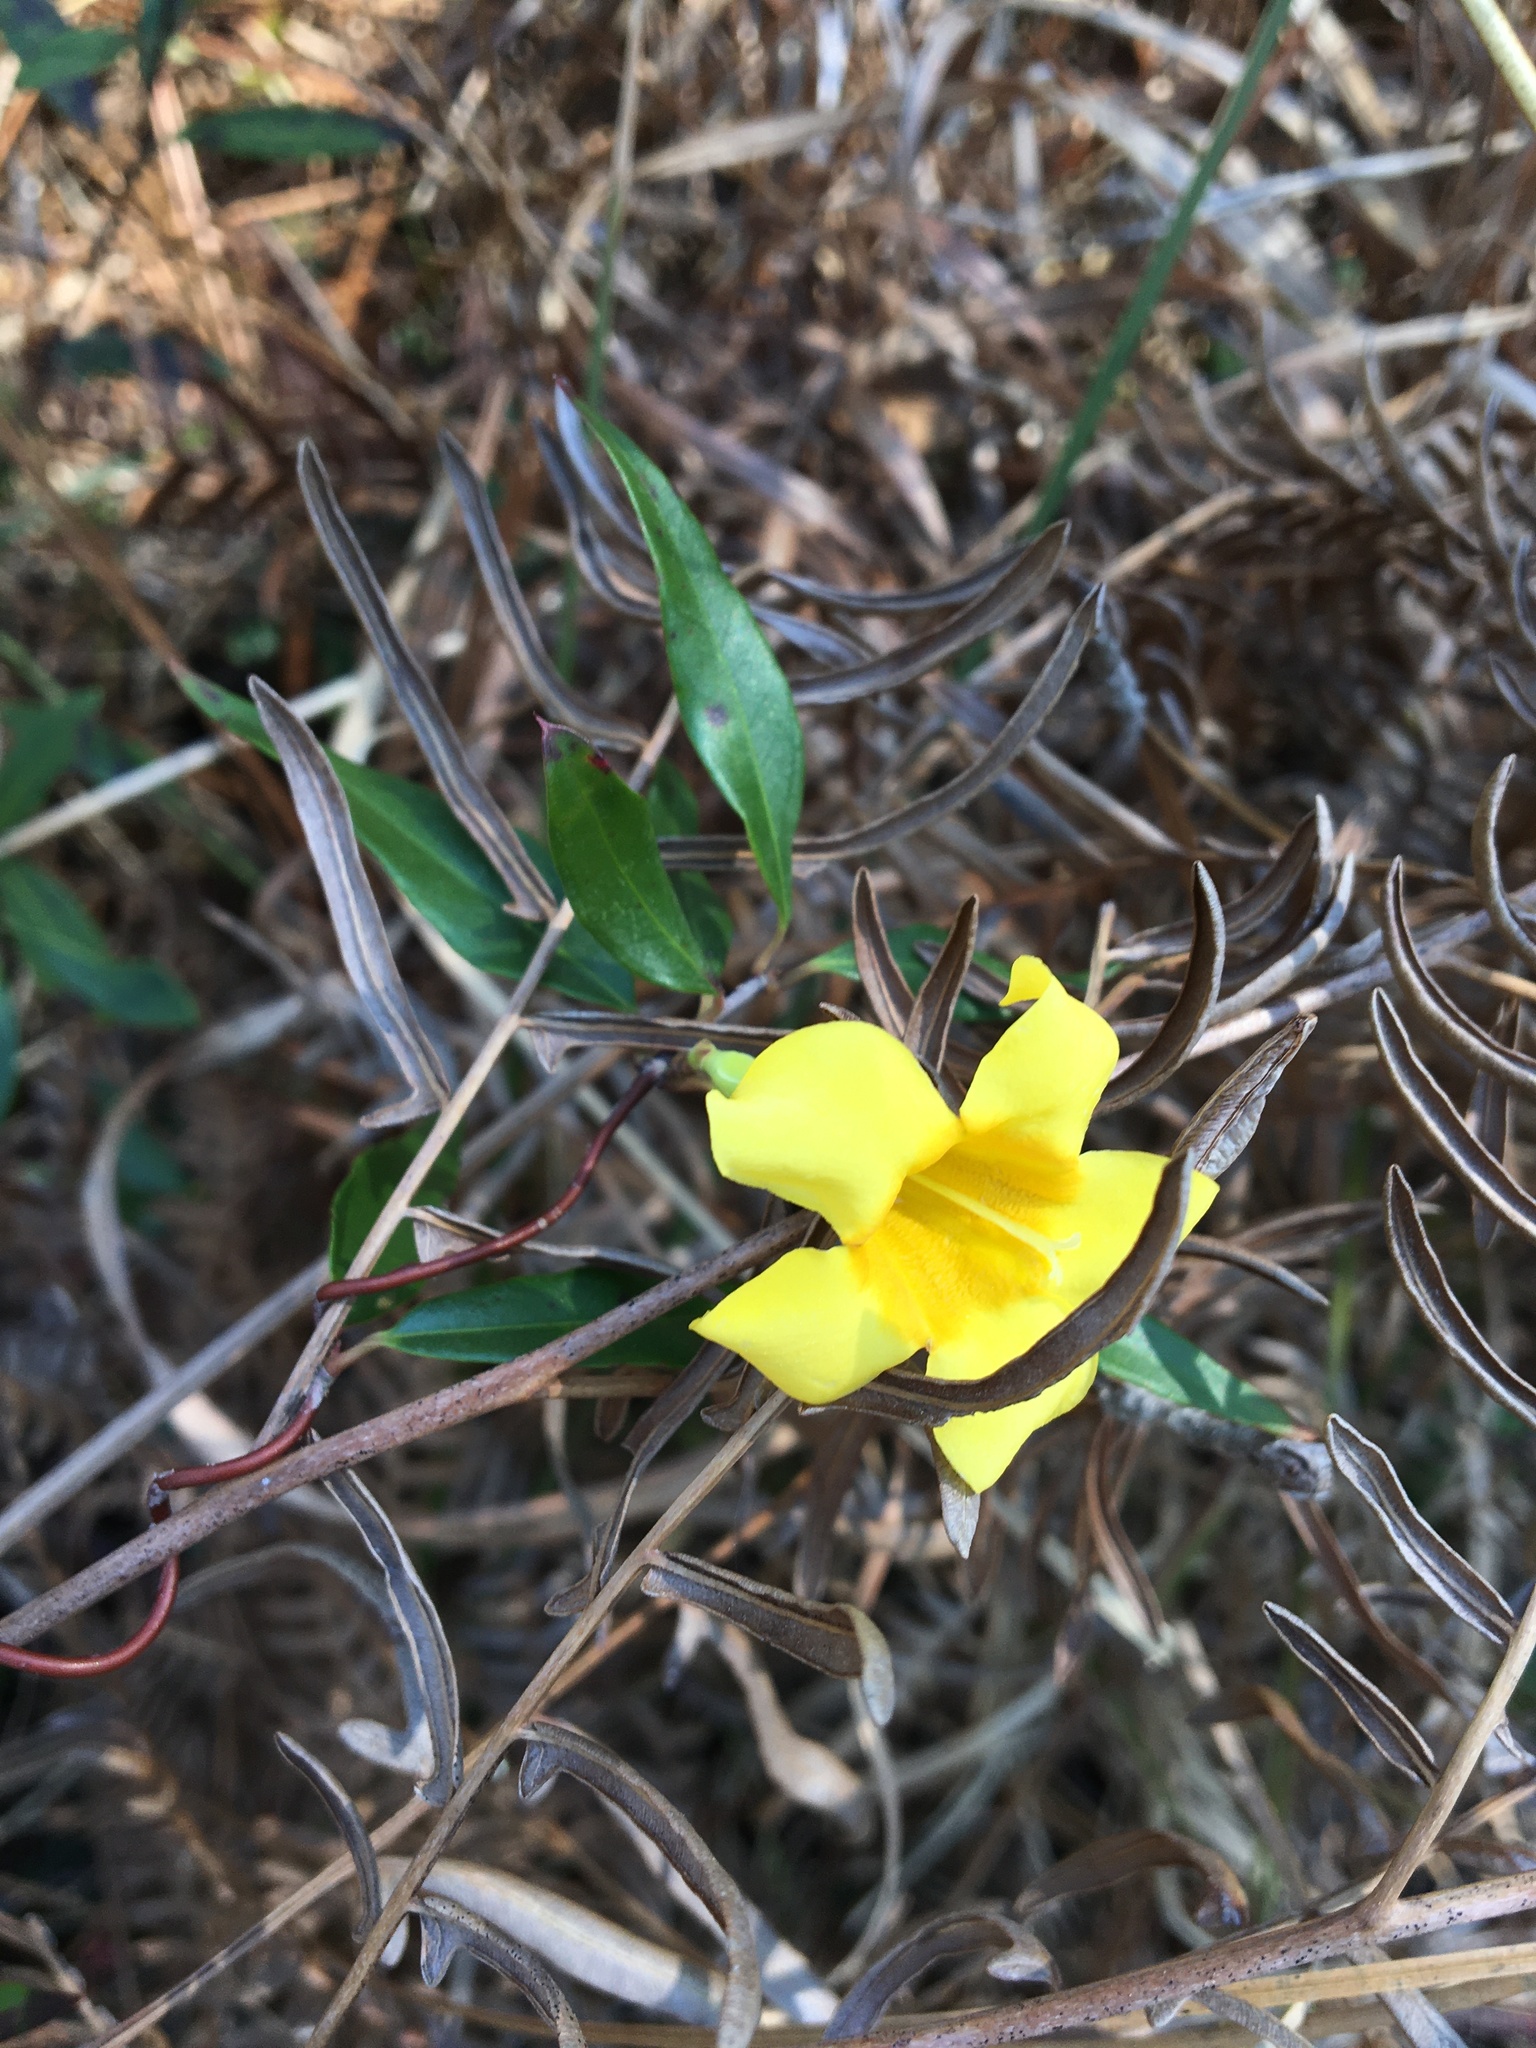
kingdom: Plantae
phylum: Tracheophyta
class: Magnoliopsida
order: Gentianales
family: Gelsemiaceae
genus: Gelsemium
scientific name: Gelsemium sempervirens
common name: Carolina-jasmine
